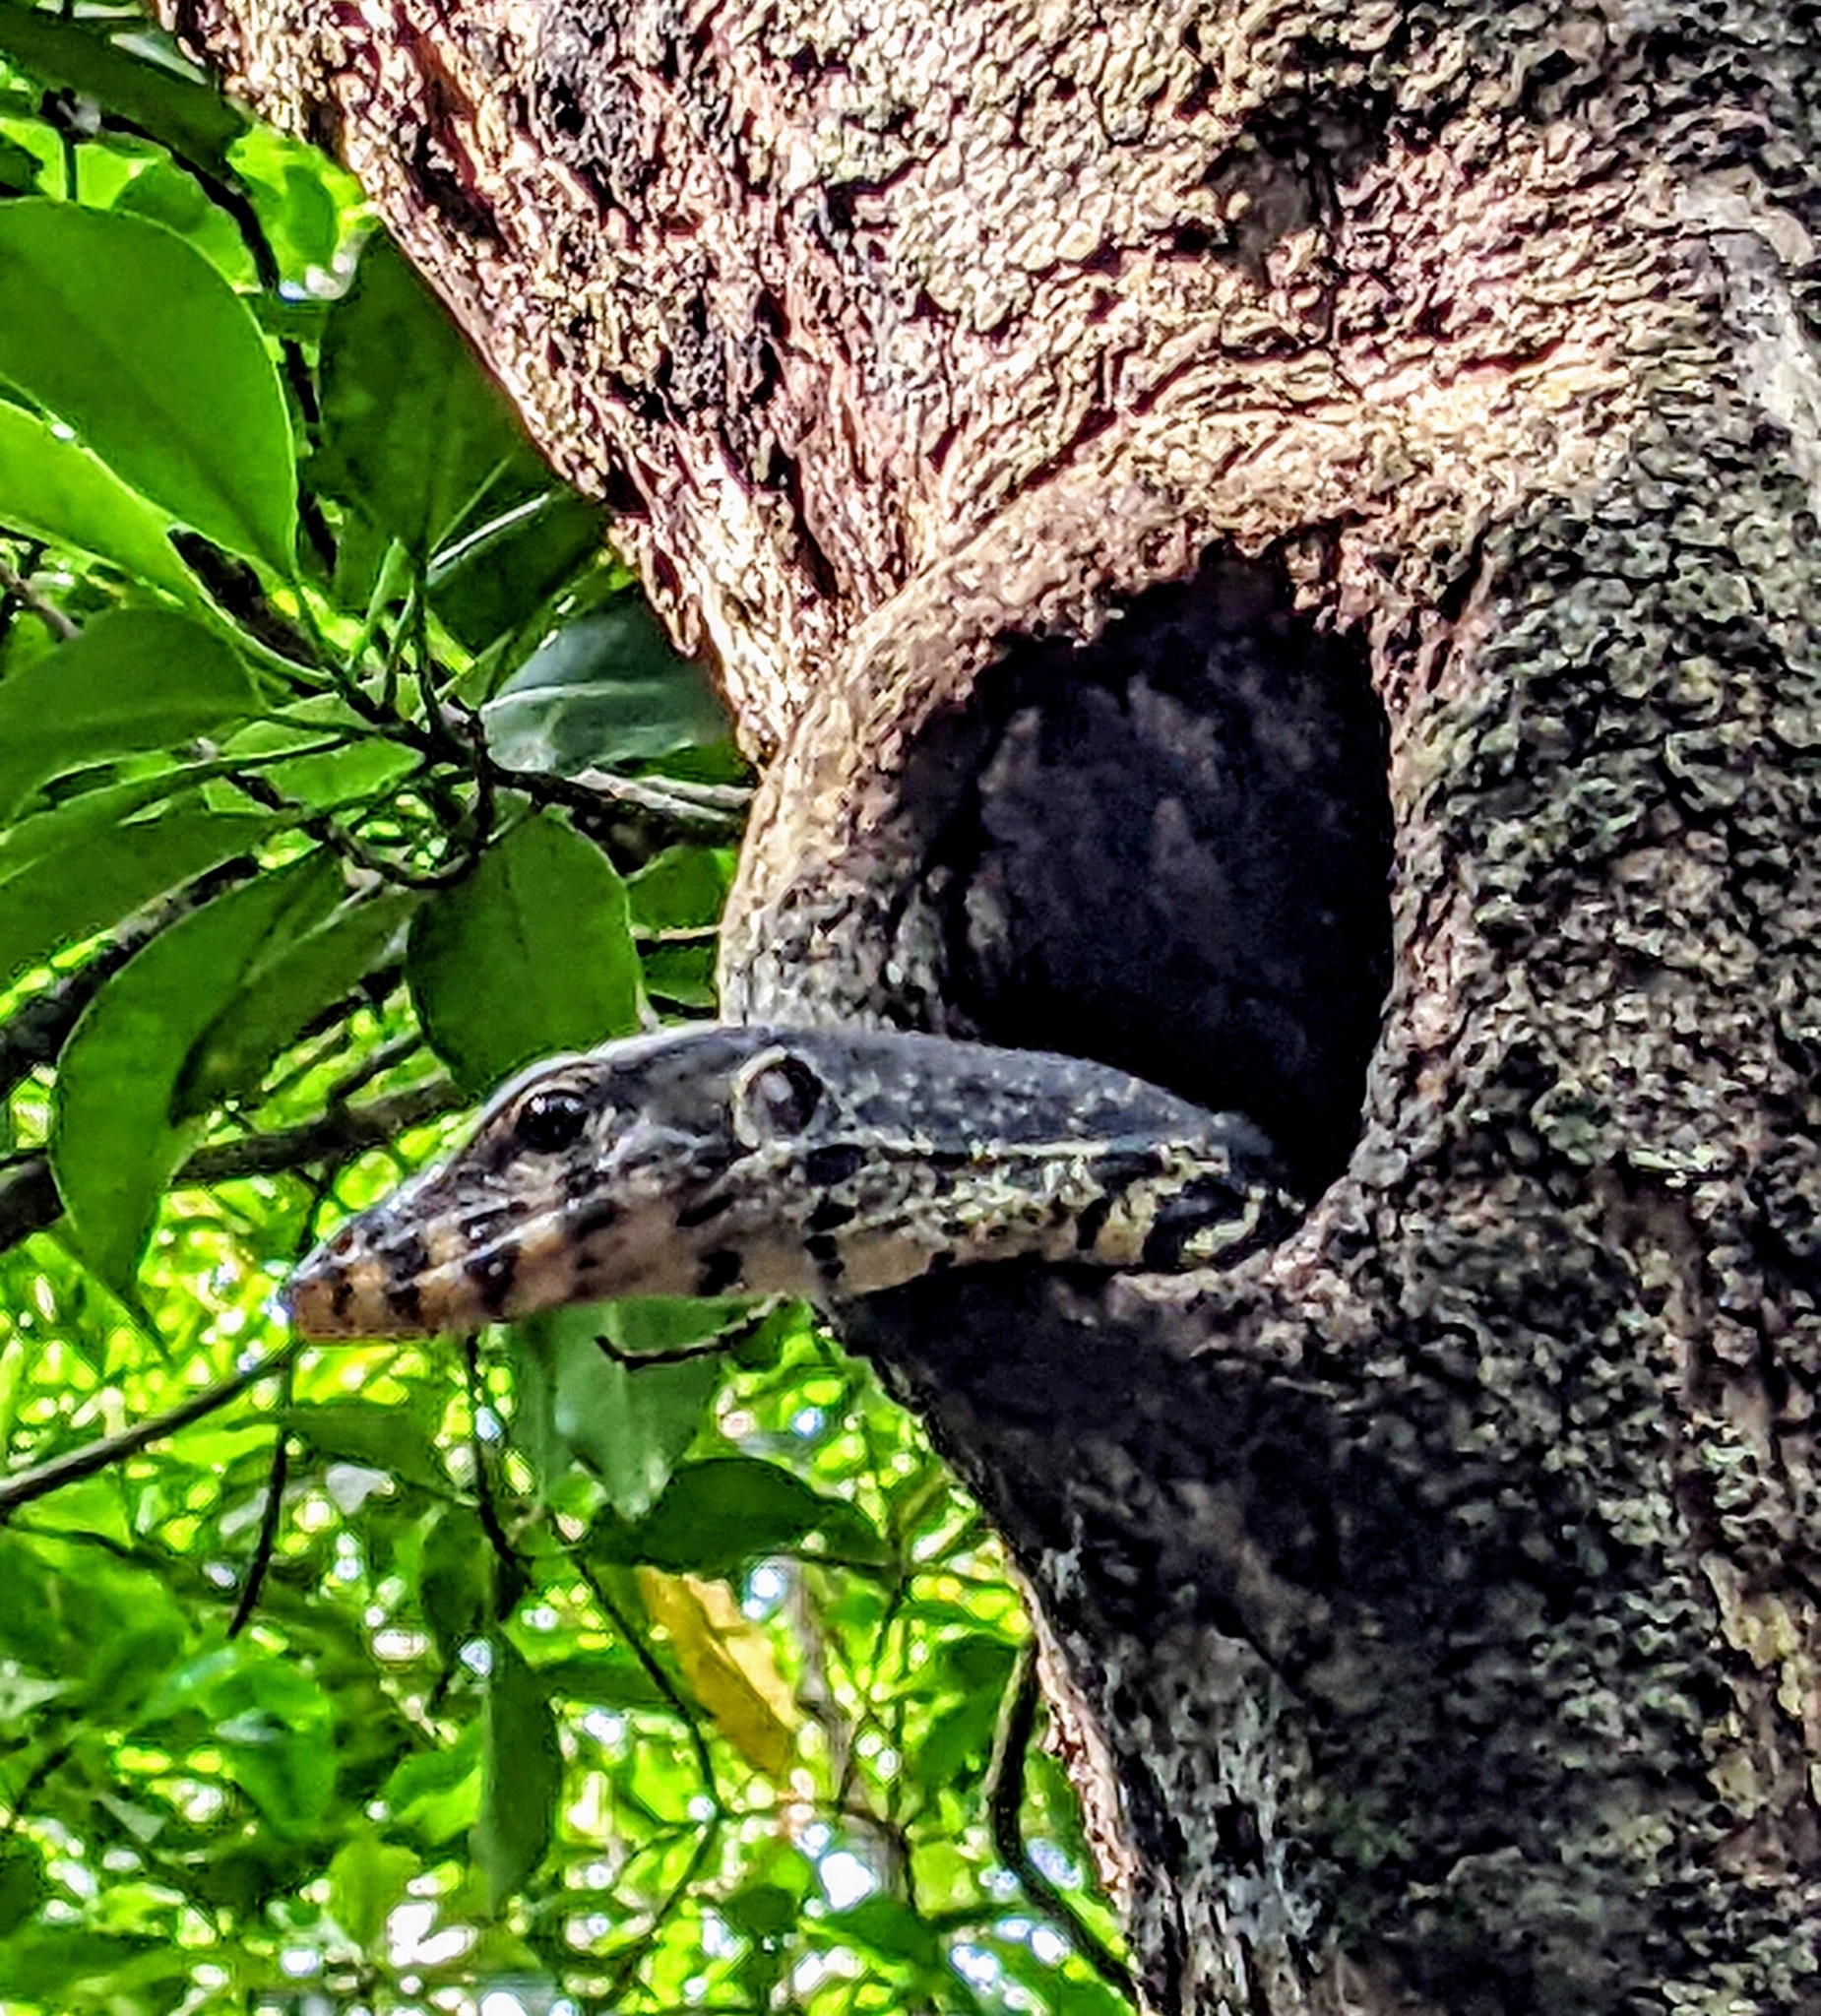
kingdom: Animalia
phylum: Chordata
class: Squamata
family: Varanidae
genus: Varanus
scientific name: Varanus salvator
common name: Common water monitor
